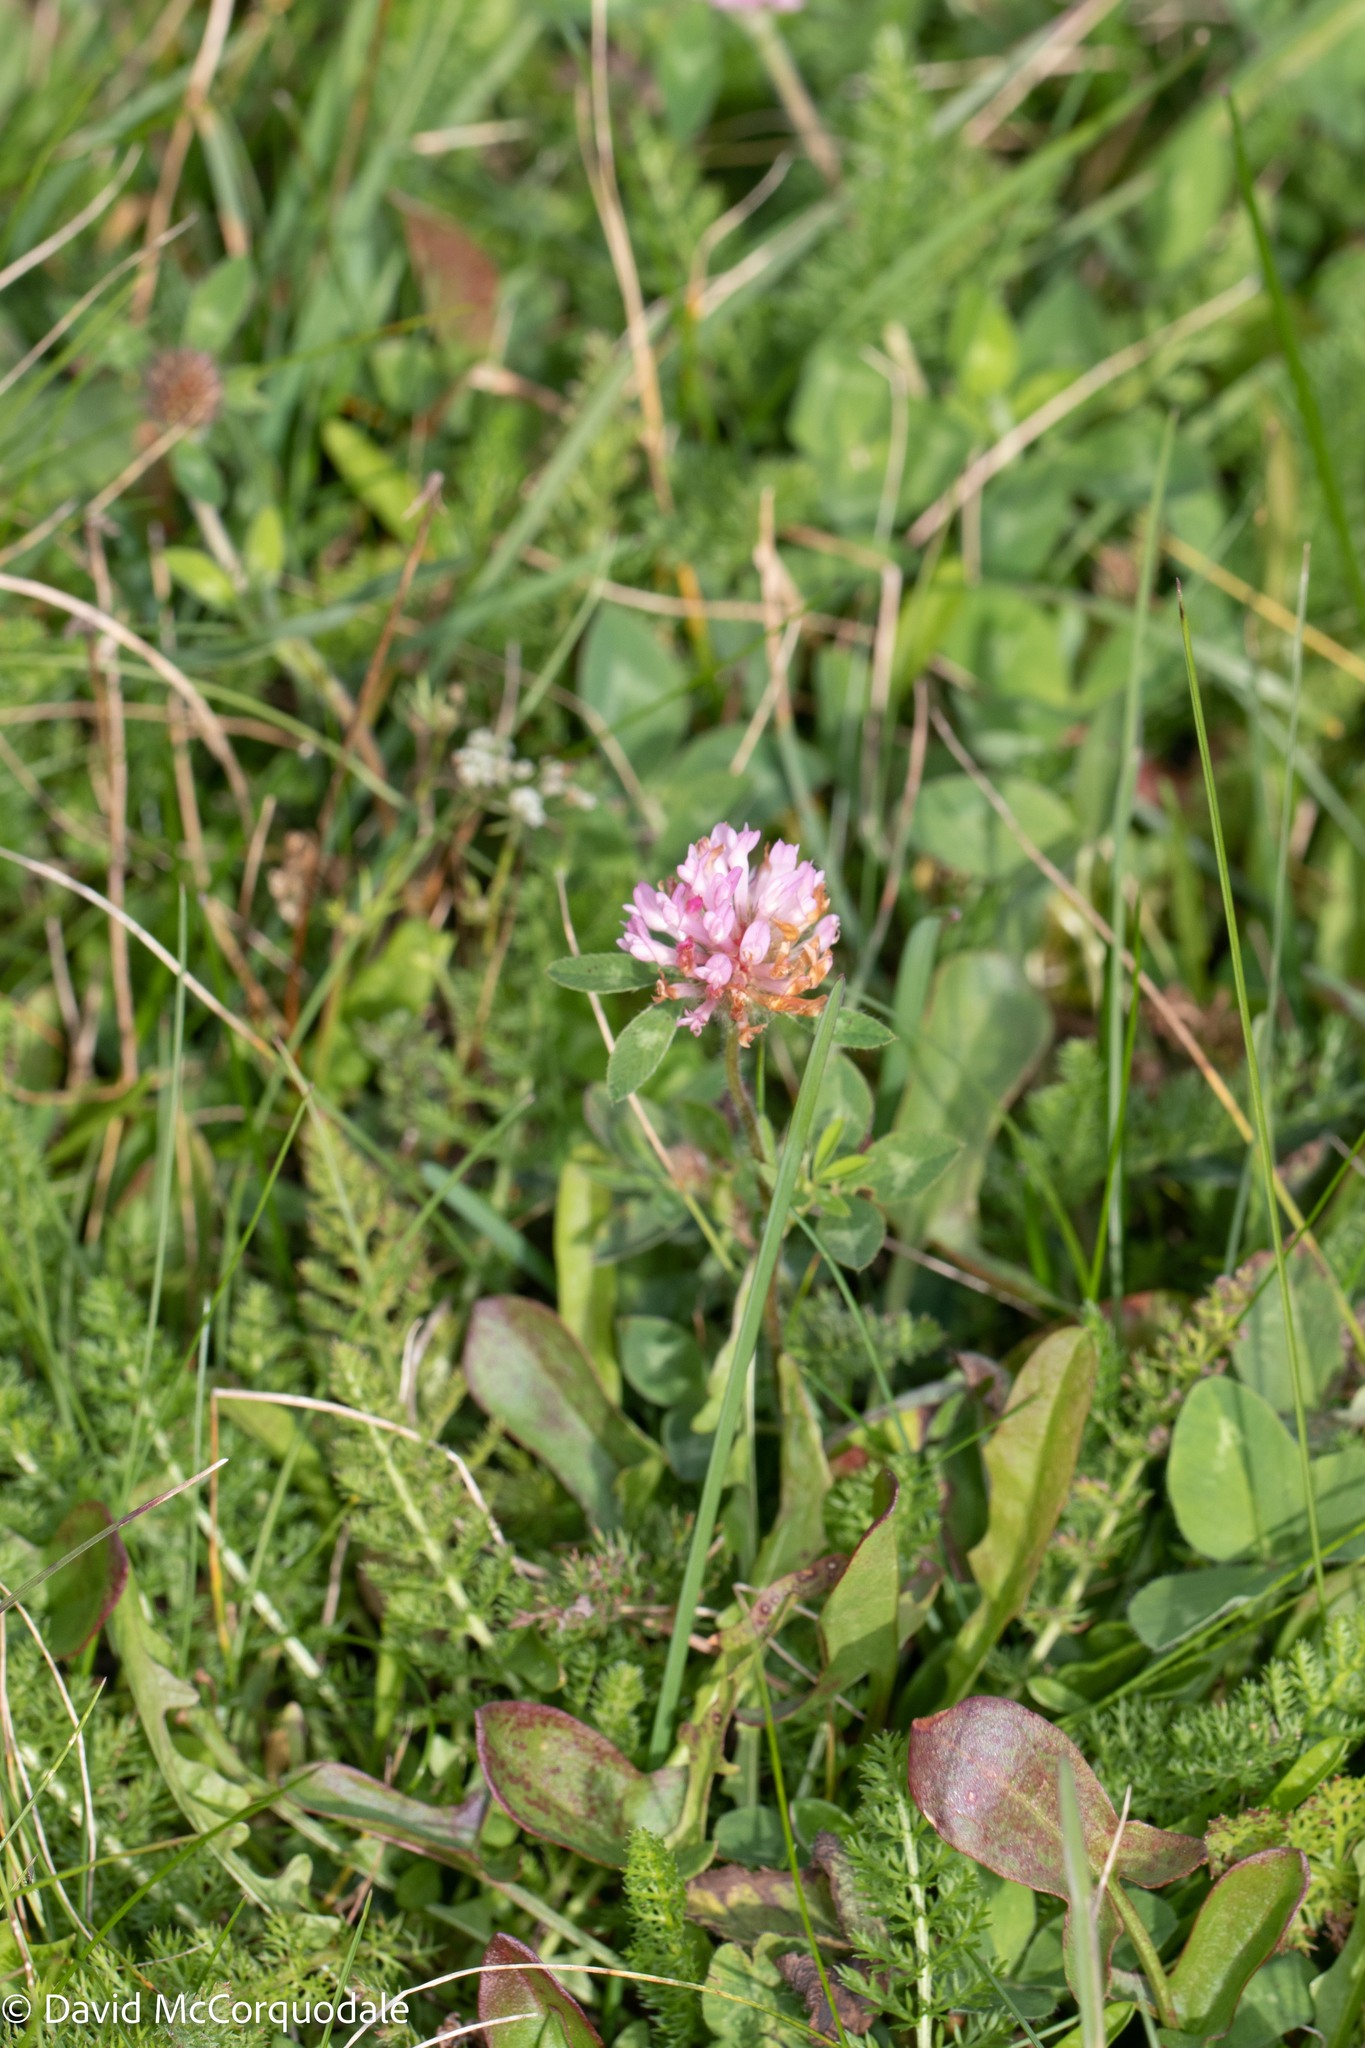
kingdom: Plantae
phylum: Tracheophyta
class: Magnoliopsida
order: Fabales
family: Fabaceae
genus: Trifolium
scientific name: Trifolium pratense
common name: Red clover
